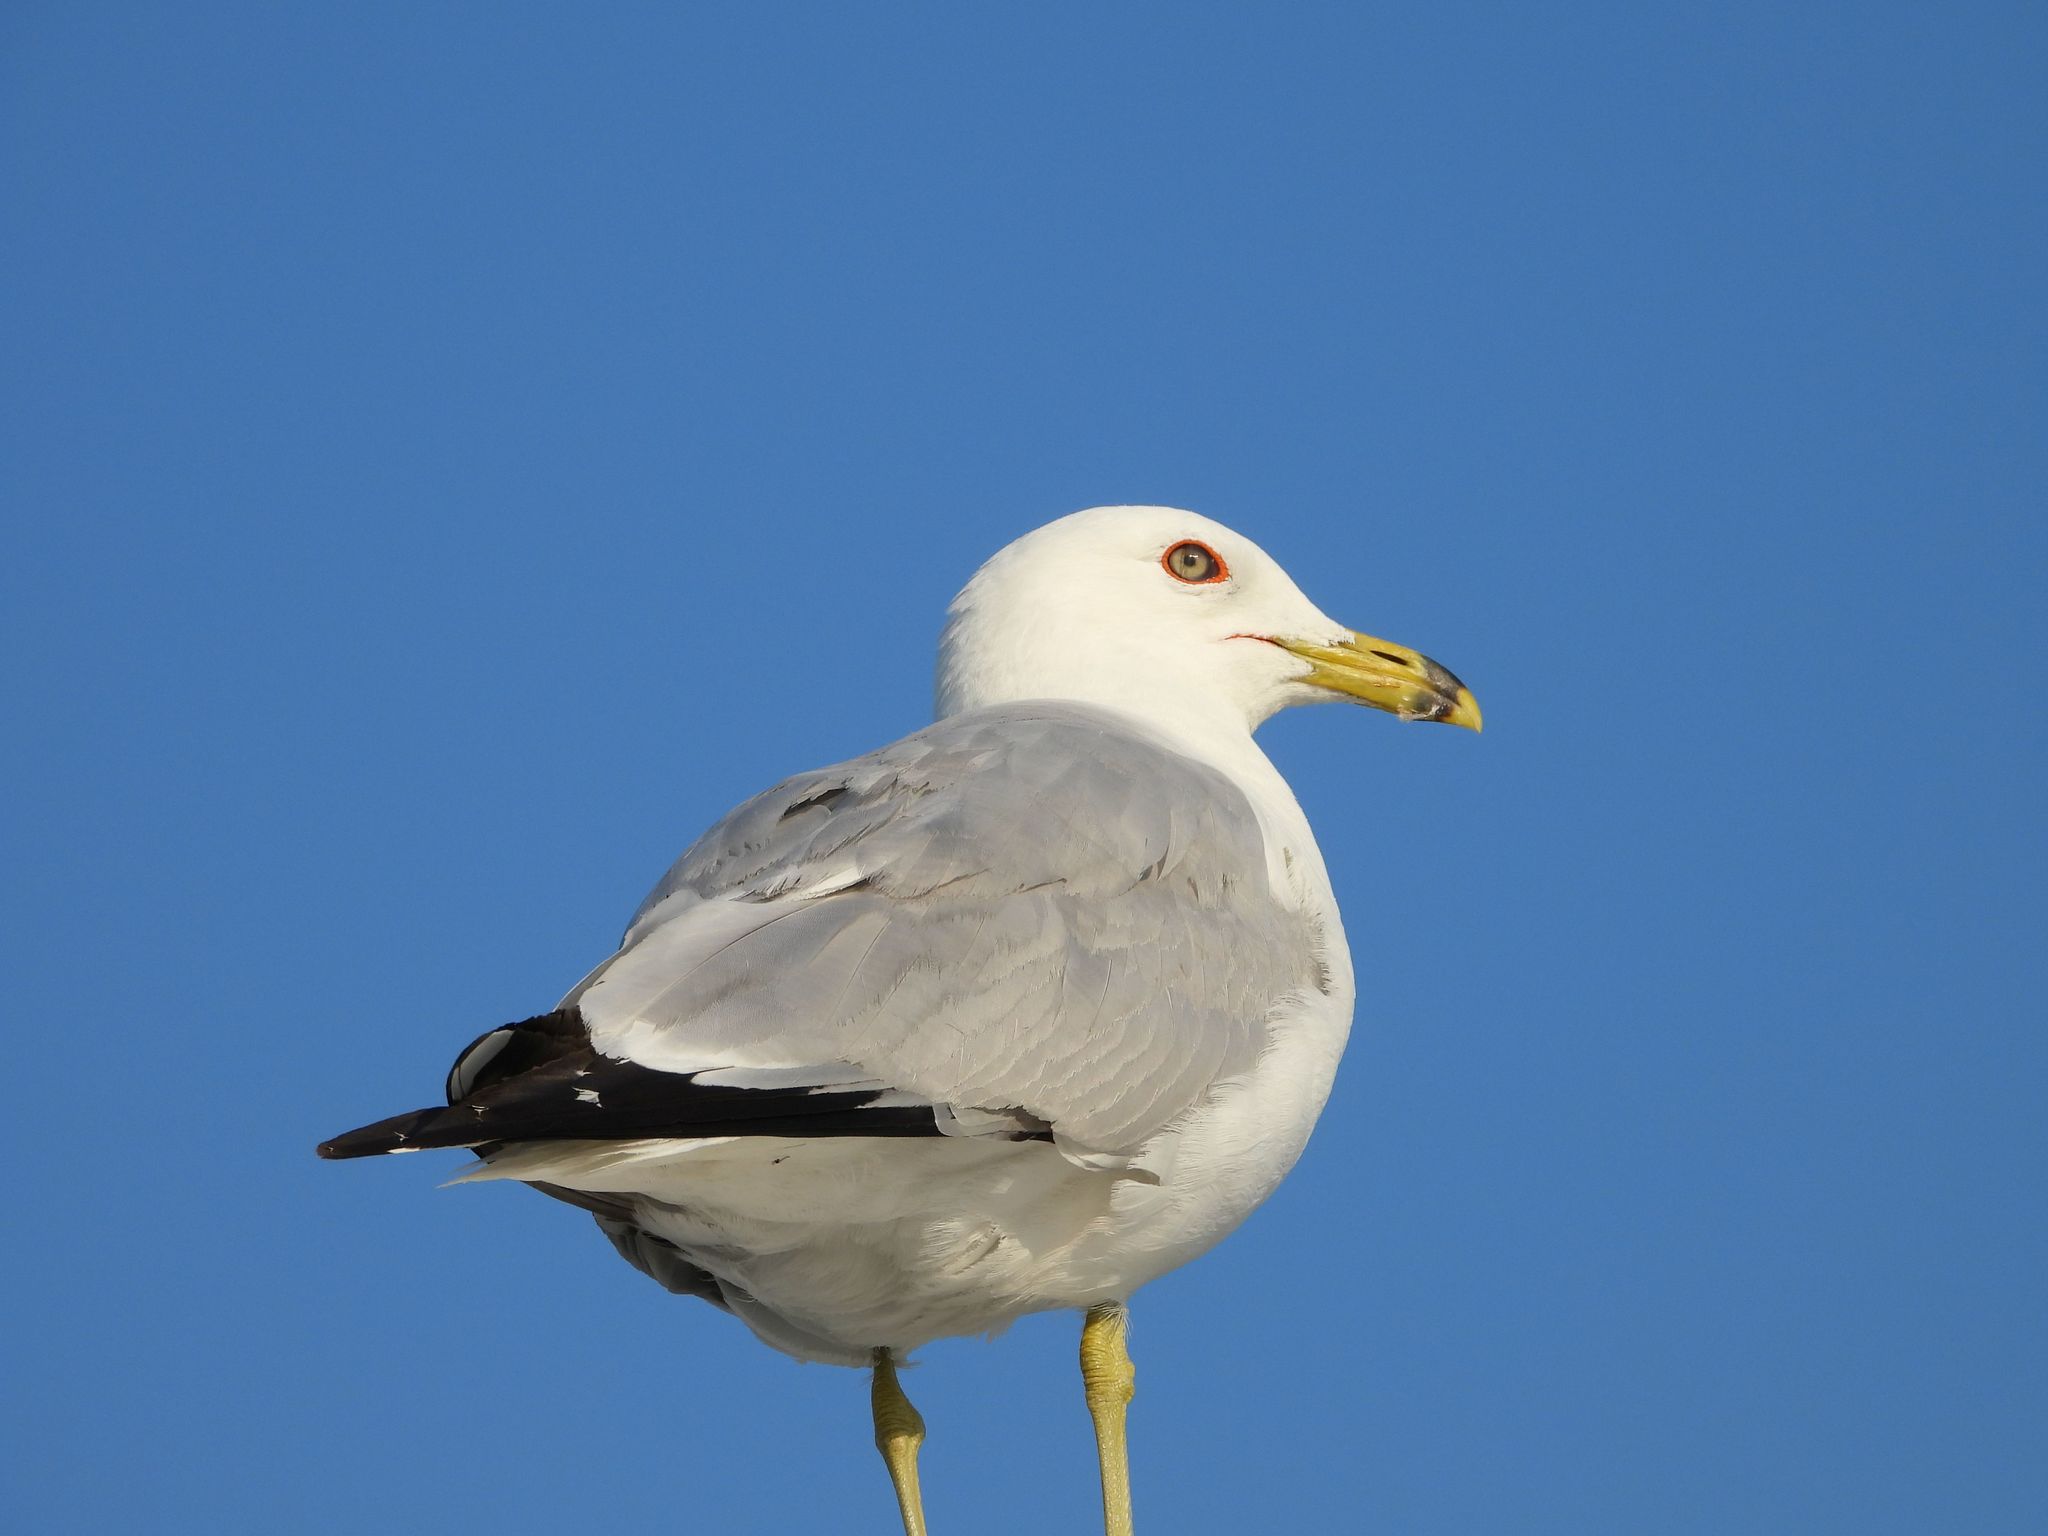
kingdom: Animalia
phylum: Chordata
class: Aves
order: Charadriiformes
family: Laridae
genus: Larus
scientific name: Larus delawarensis
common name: Ring-billed gull
